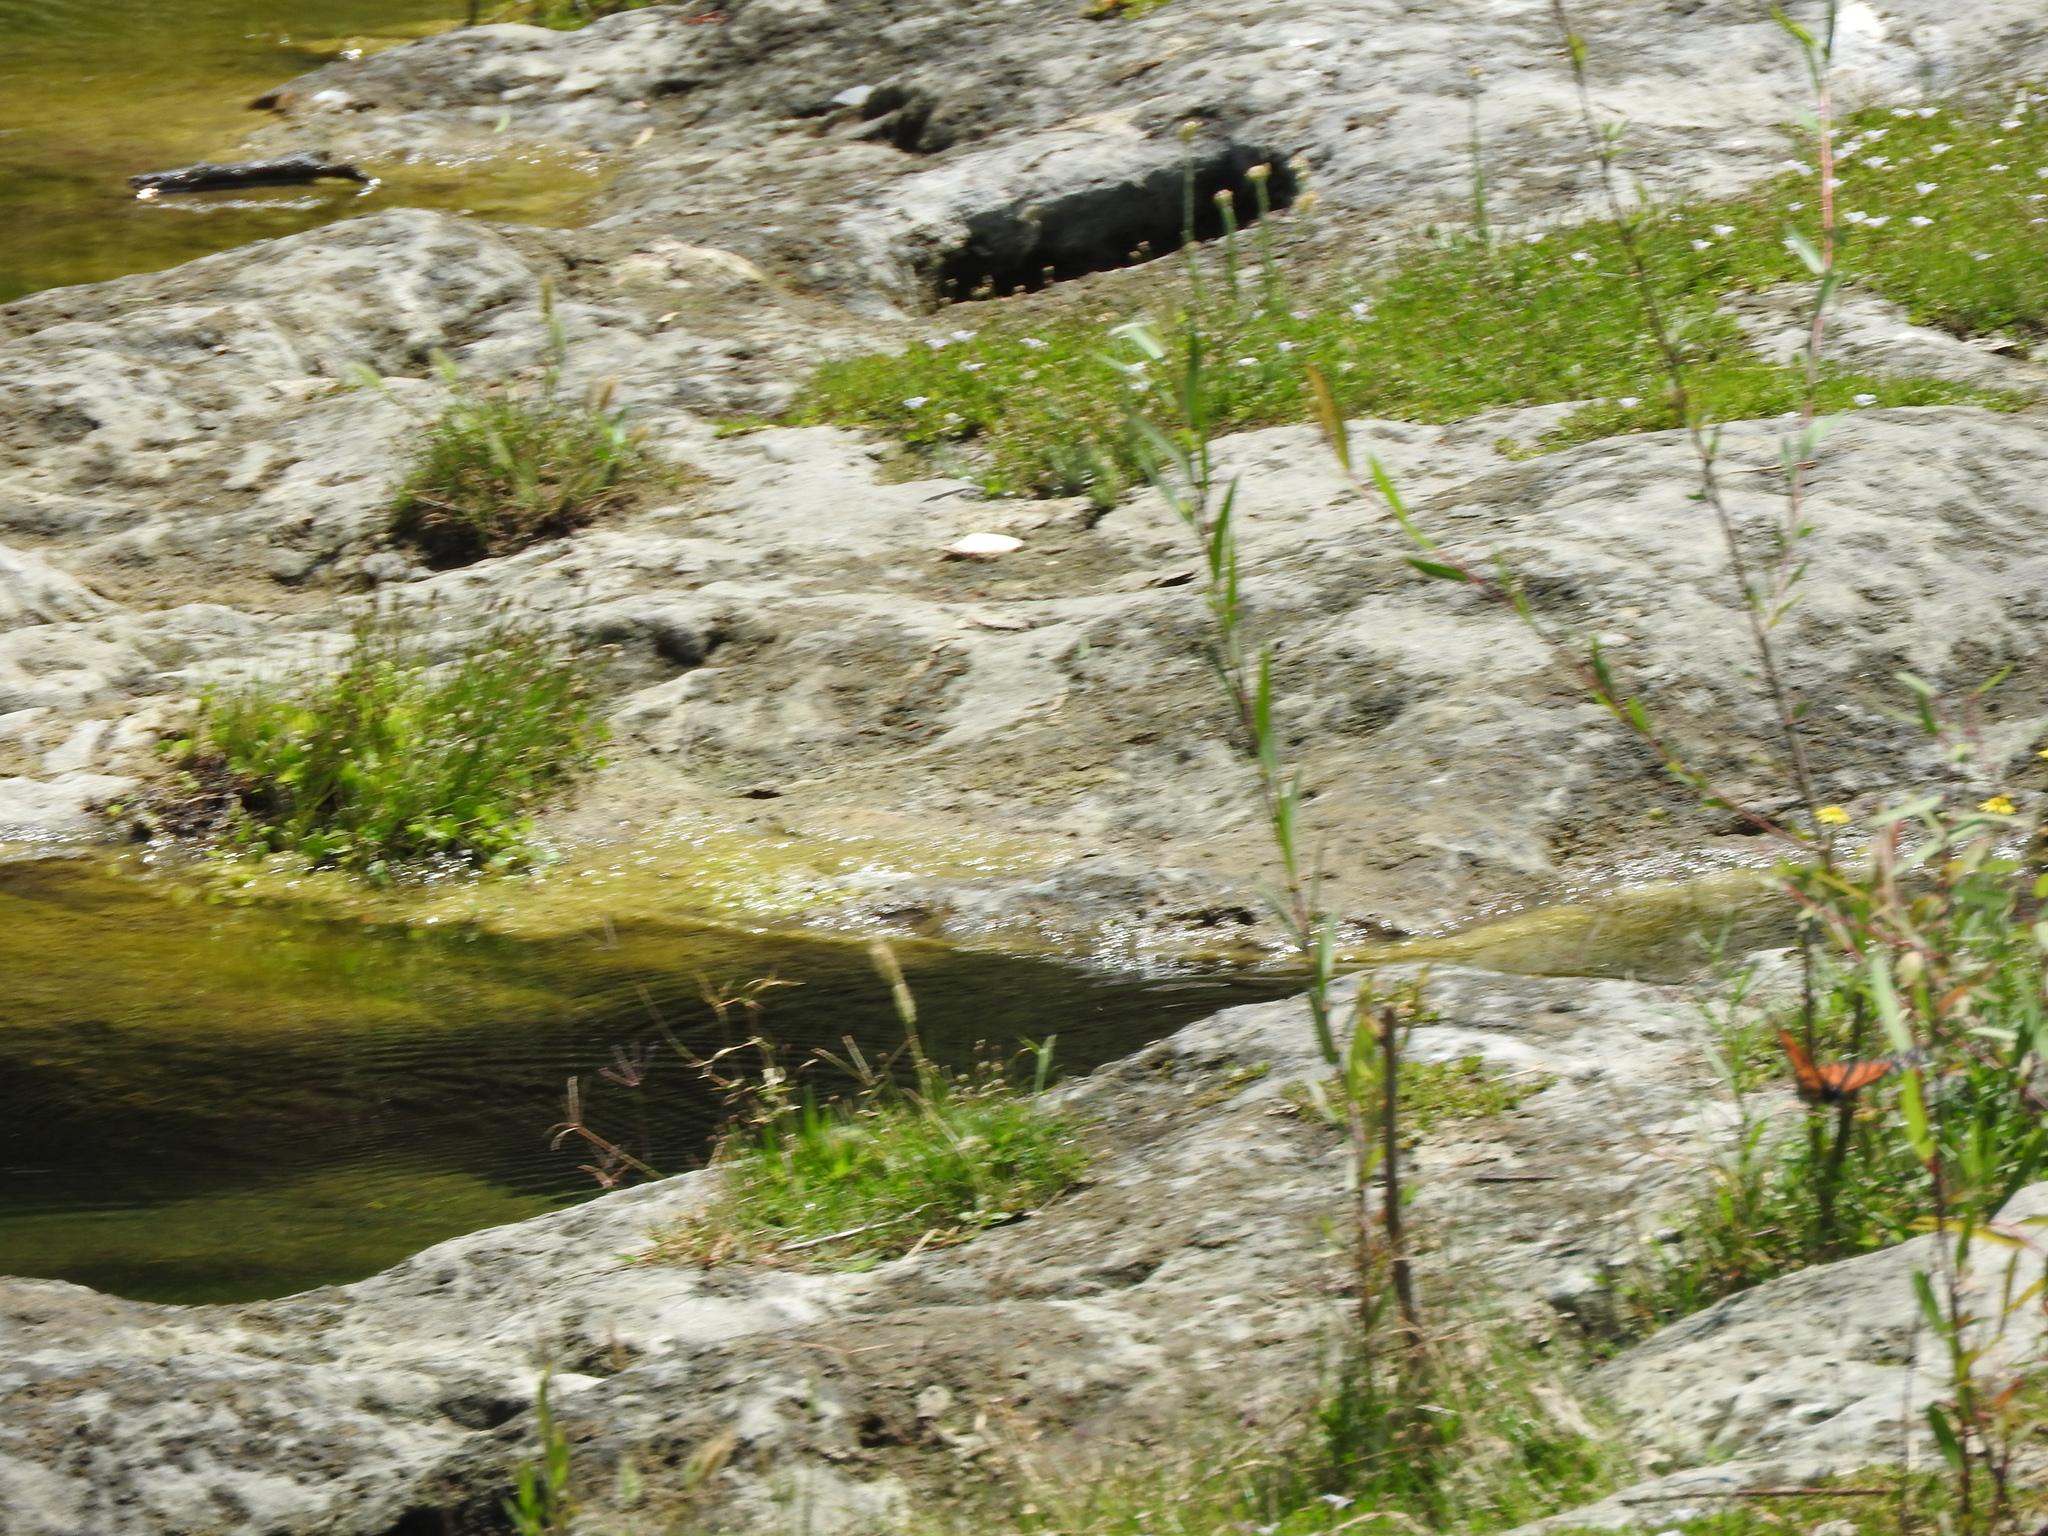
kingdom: Animalia
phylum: Arthropoda
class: Insecta
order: Lepidoptera
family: Nymphalidae
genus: Danaus
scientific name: Danaus plexippus
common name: Monarch
